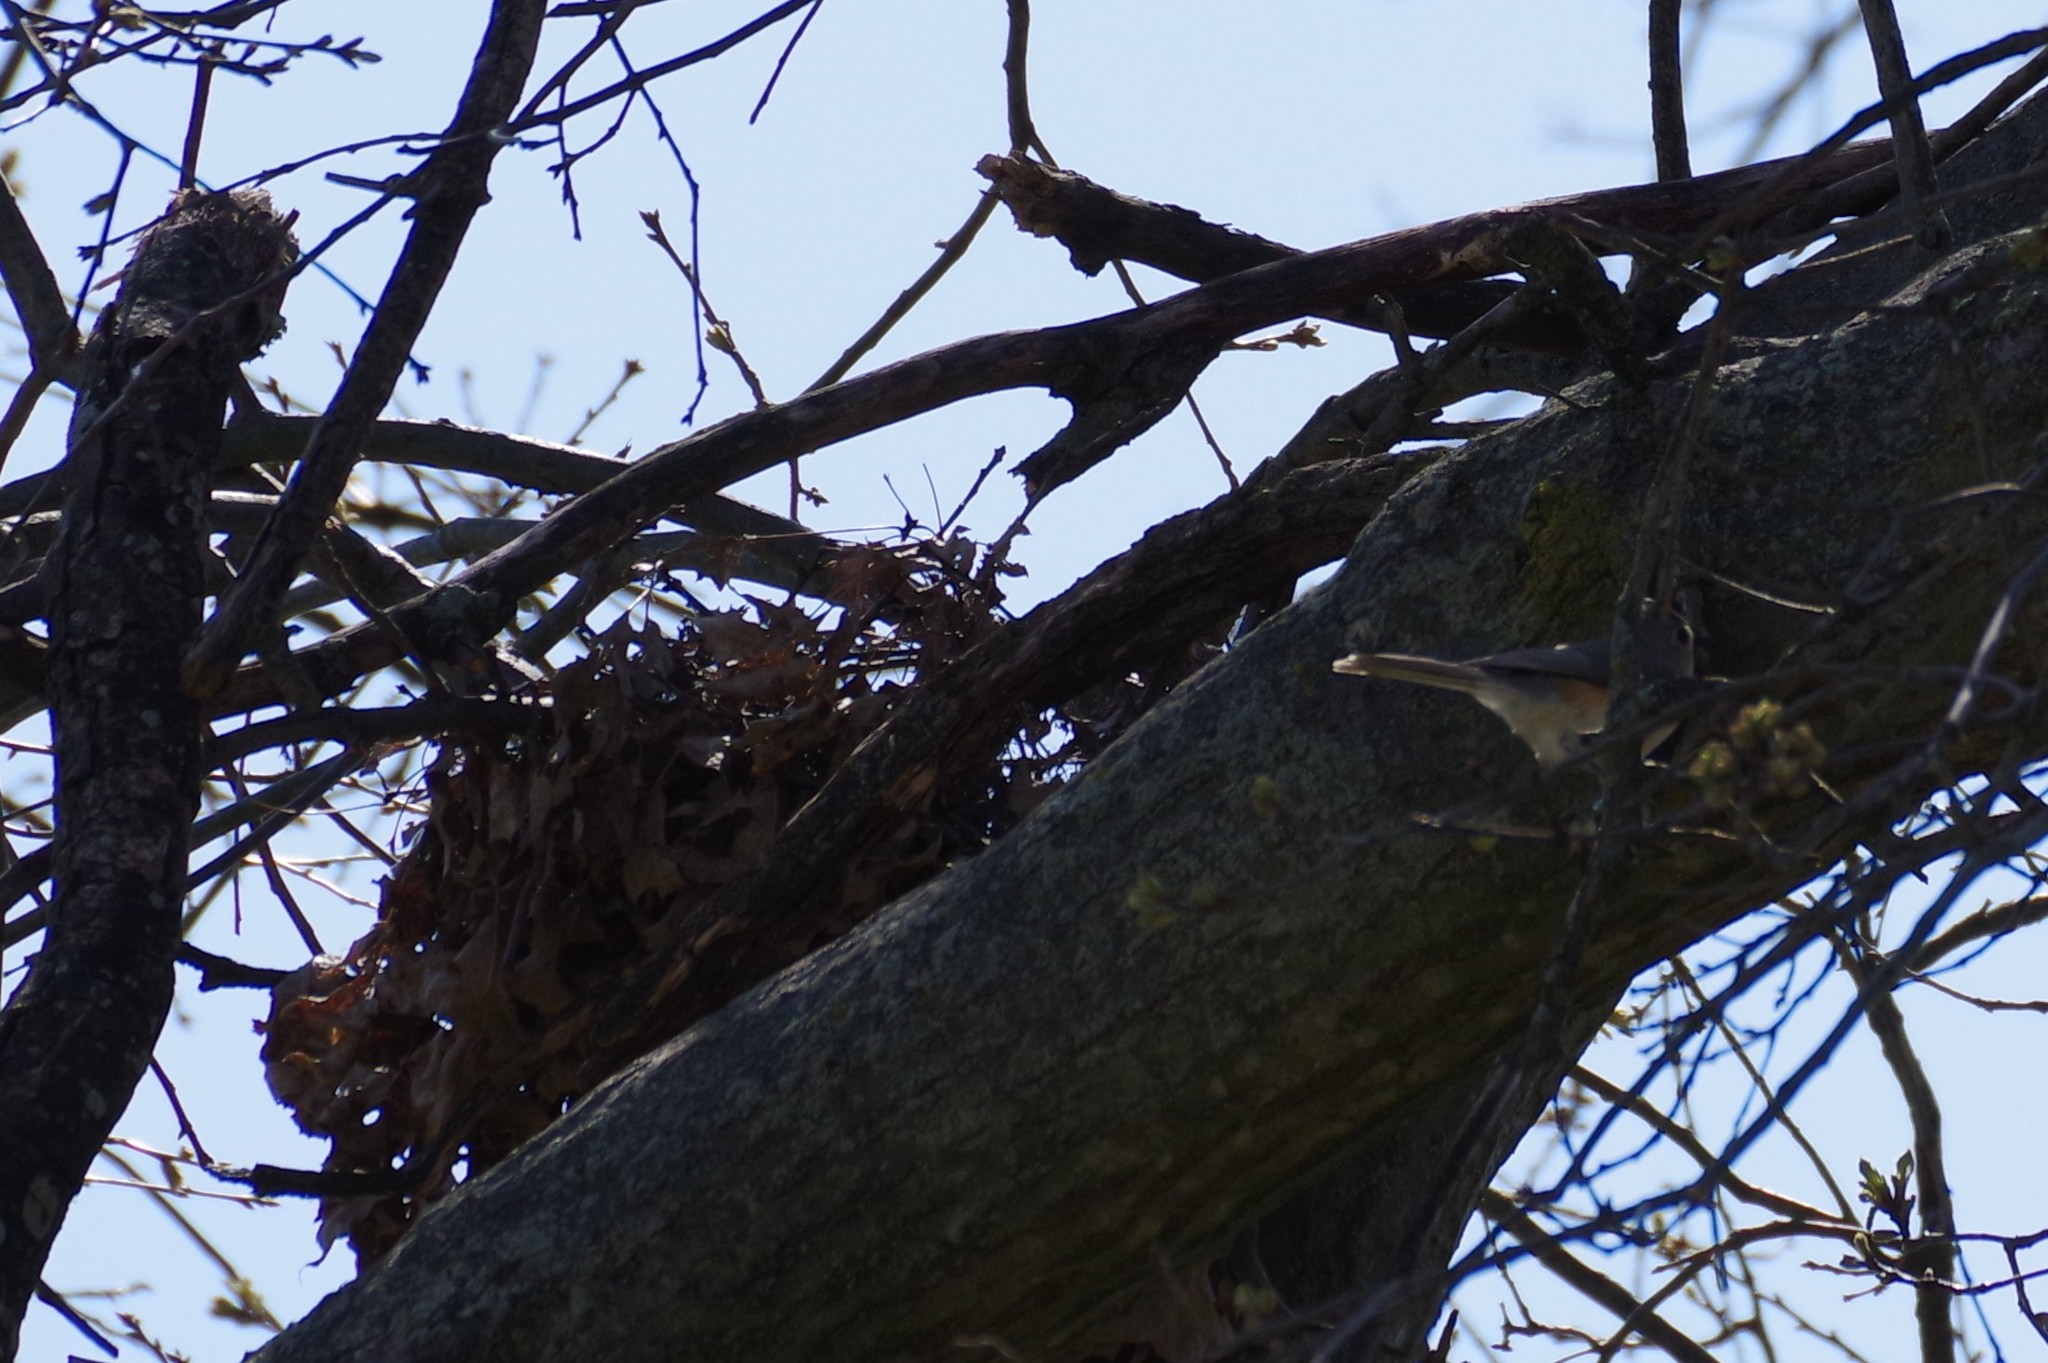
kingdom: Animalia
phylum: Chordata
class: Aves
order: Passeriformes
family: Paridae
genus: Baeolophus
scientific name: Baeolophus bicolor
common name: Tufted titmouse
